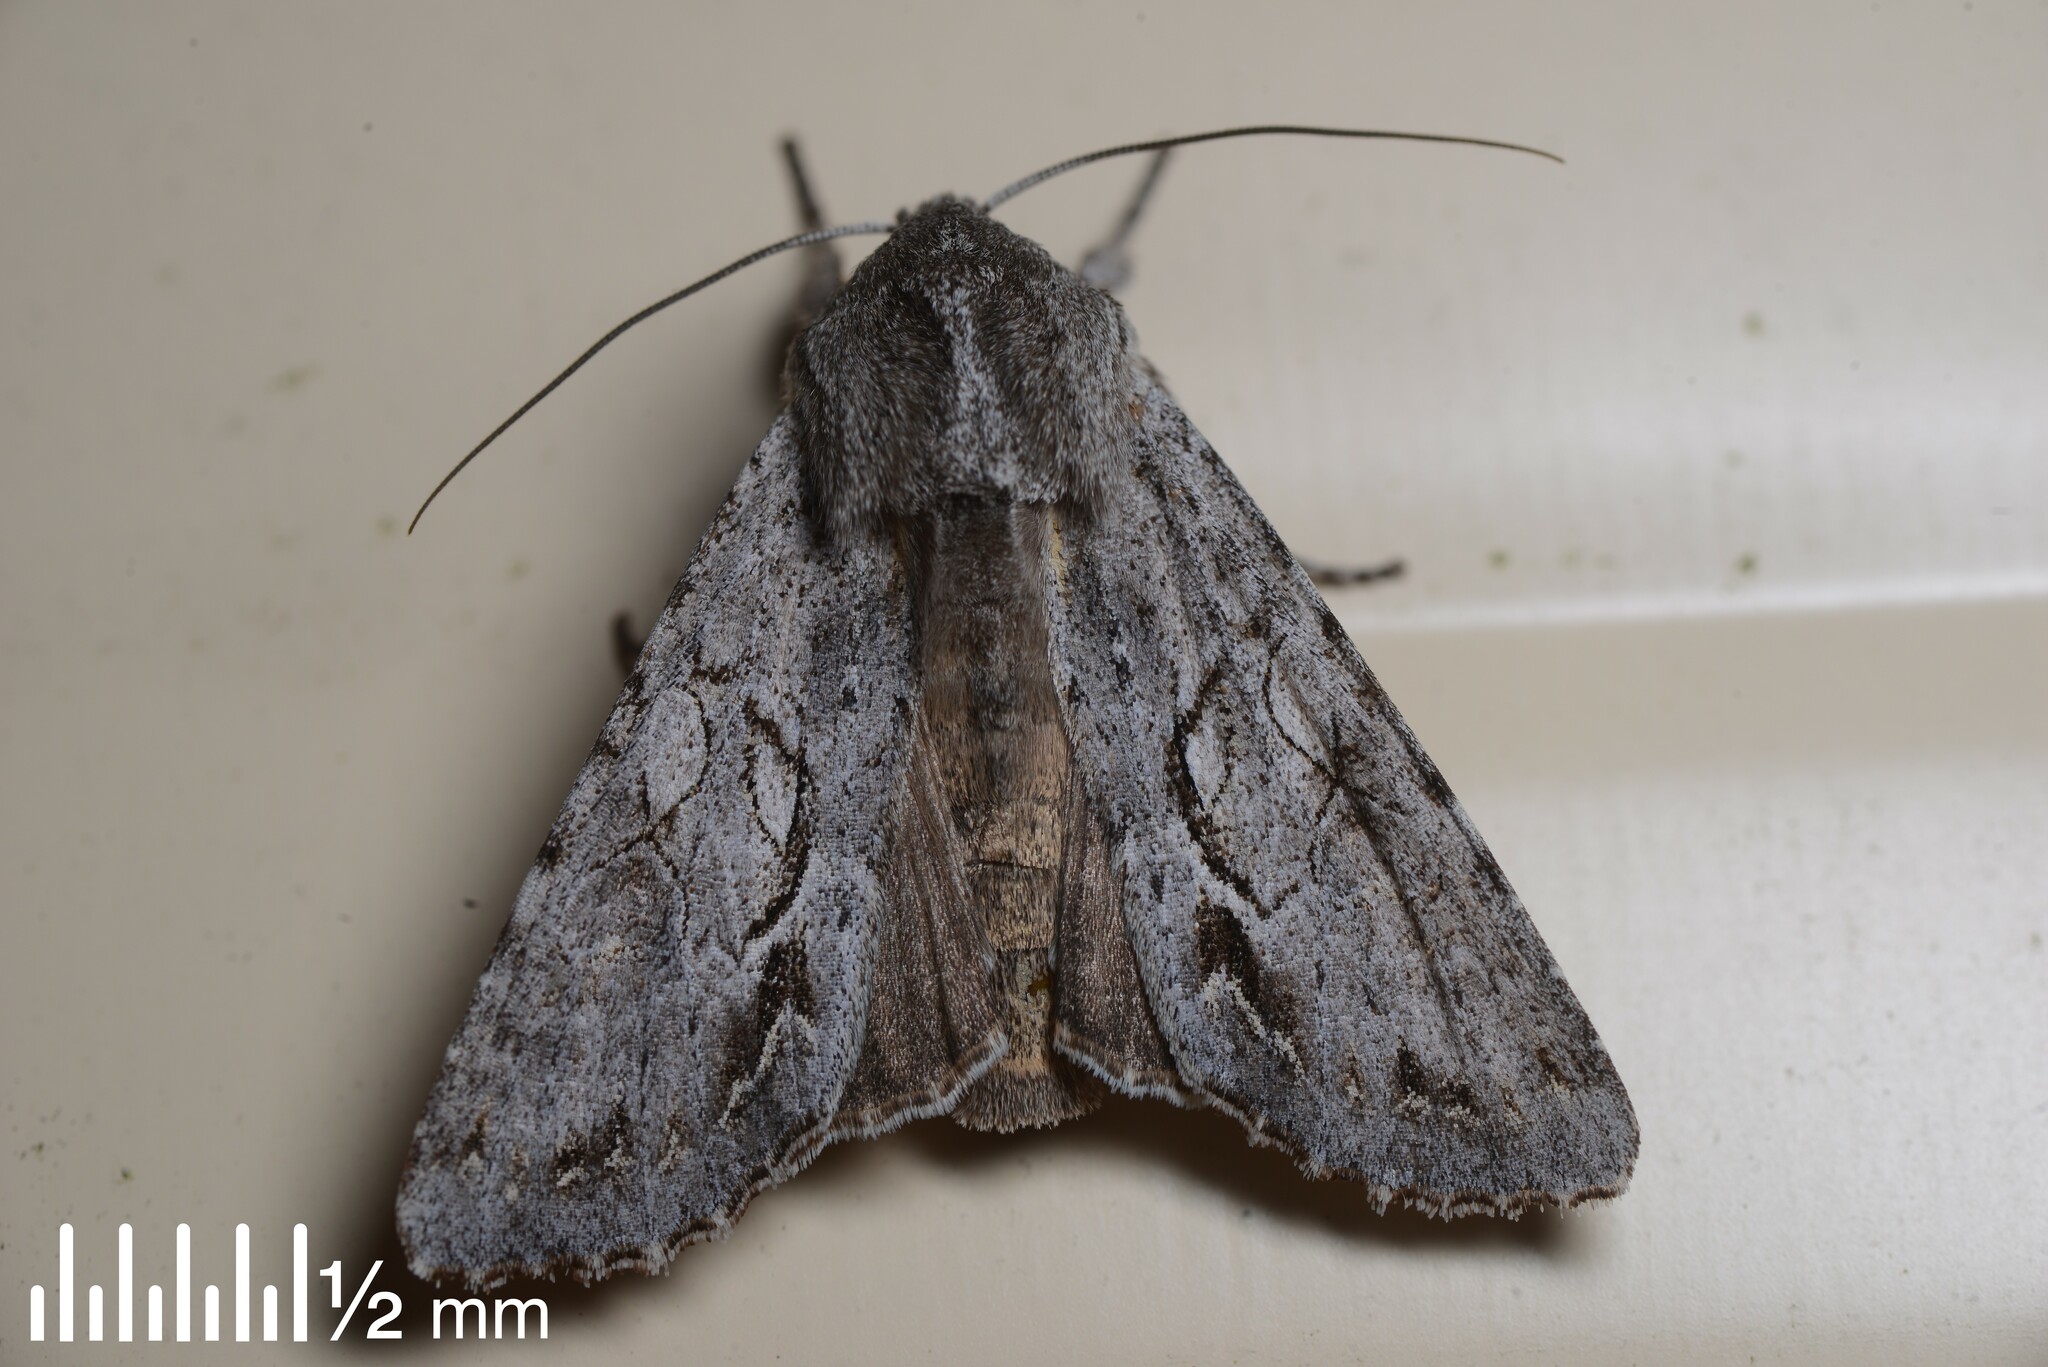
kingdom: Animalia
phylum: Arthropoda
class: Insecta
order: Lepidoptera
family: Noctuidae
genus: Ichneutica
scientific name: Ichneutica
